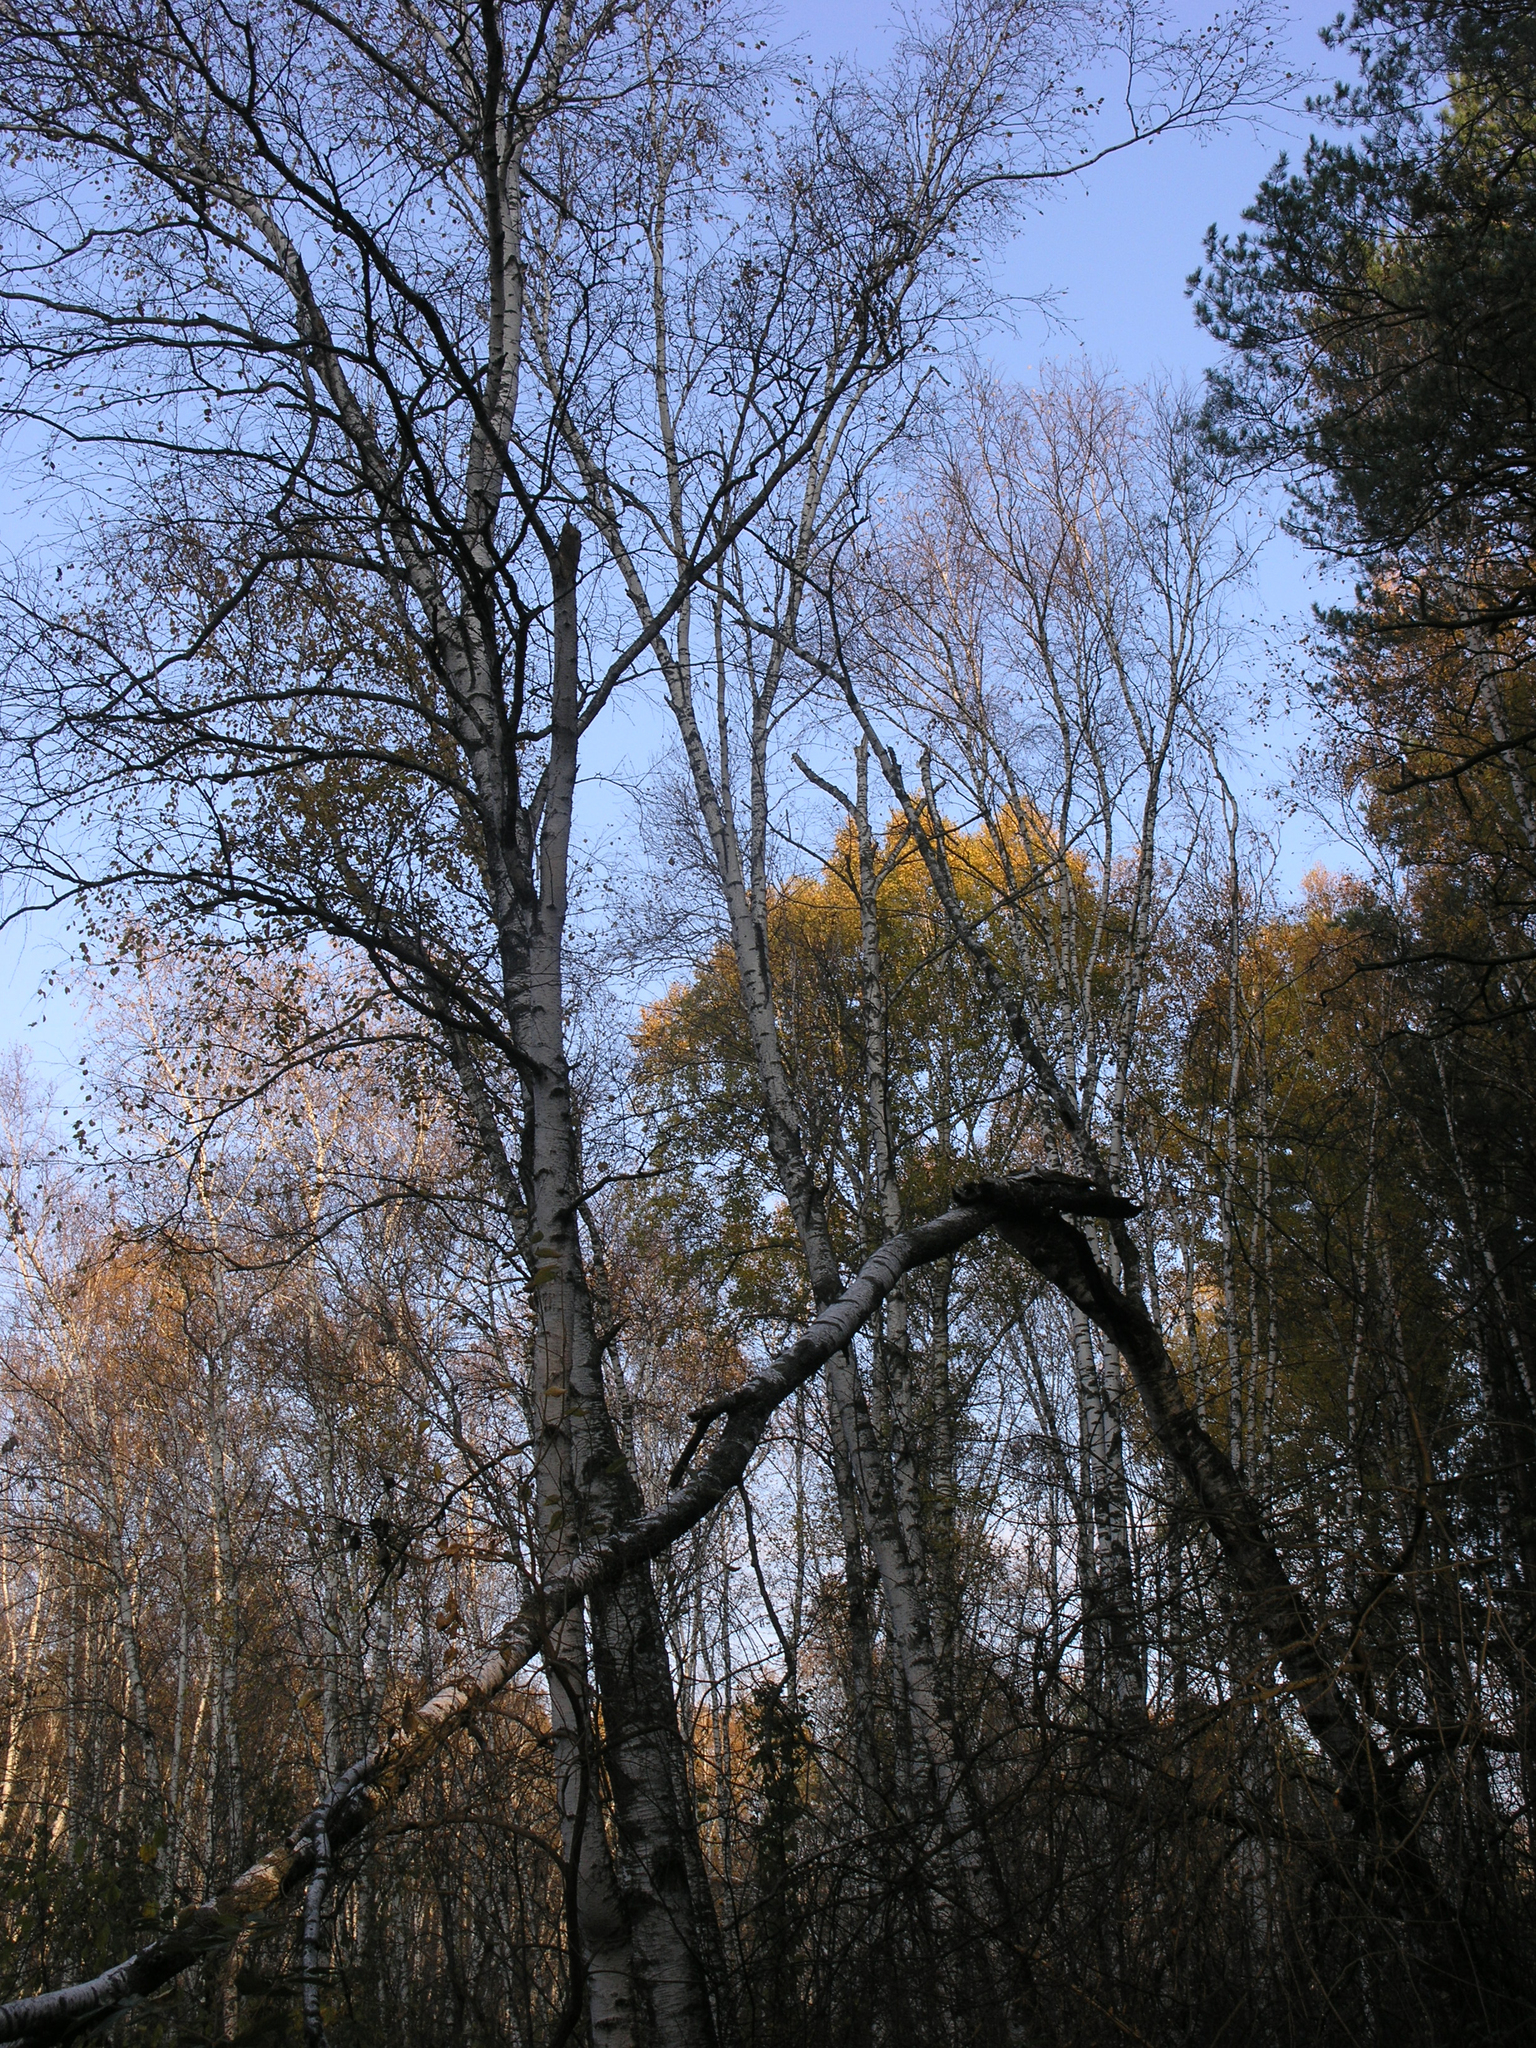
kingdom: Plantae
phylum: Tracheophyta
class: Magnoliopsida
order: Fagales
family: Betulaceae
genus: Betula
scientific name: Betula pendula
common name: Silver birch
